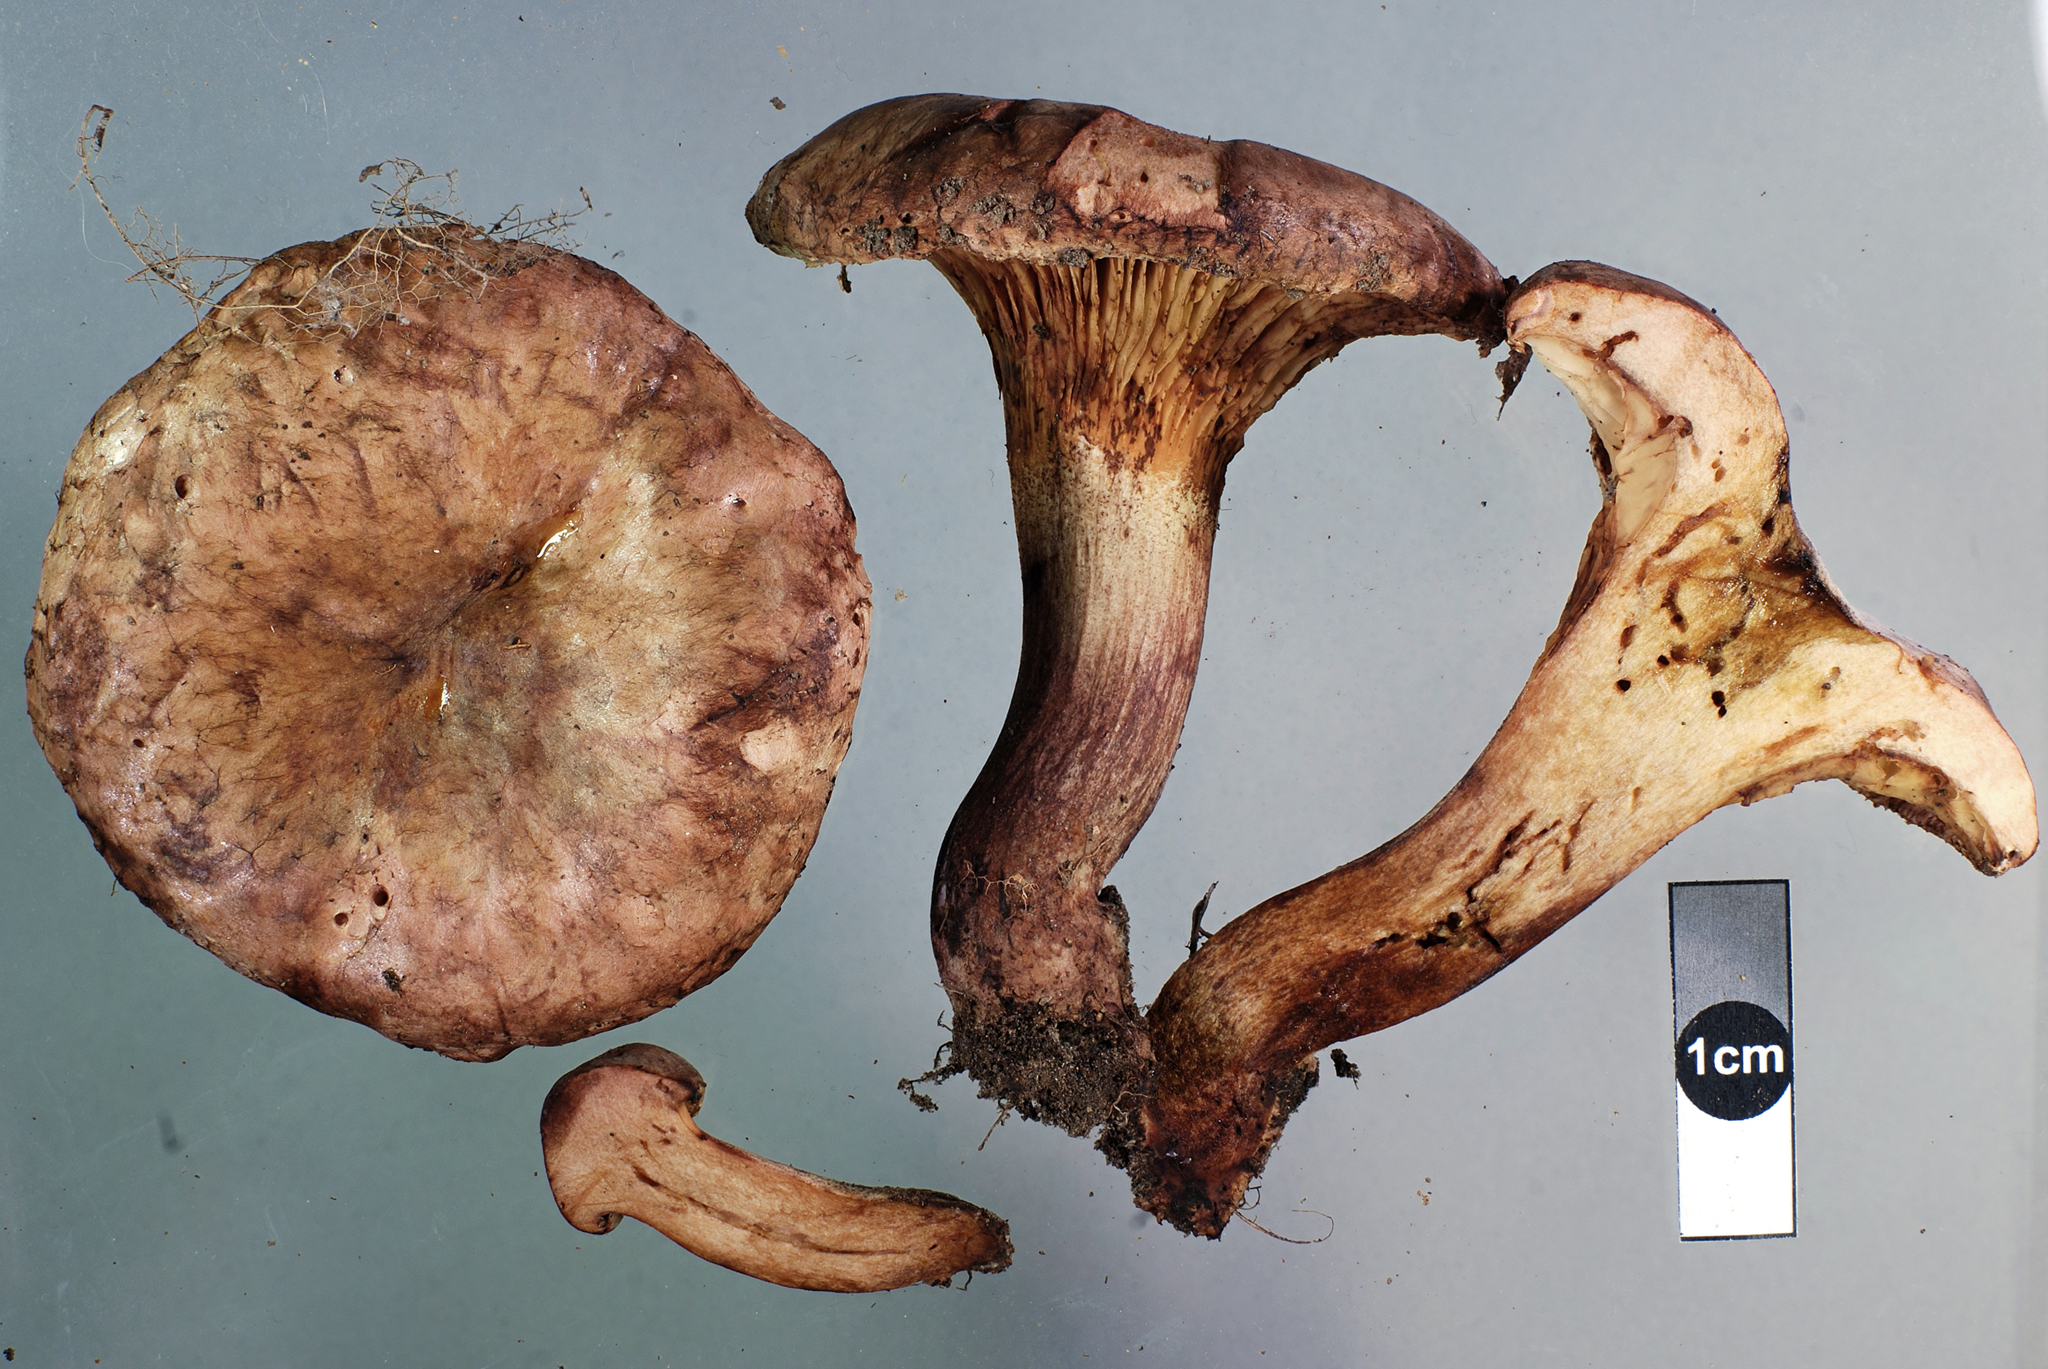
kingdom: Fungi
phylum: Basidiomycota
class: Agaricomycetes
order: Boletales
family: Paxillaceae
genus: Paxillus
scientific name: Paxillus ammoniavirescens
